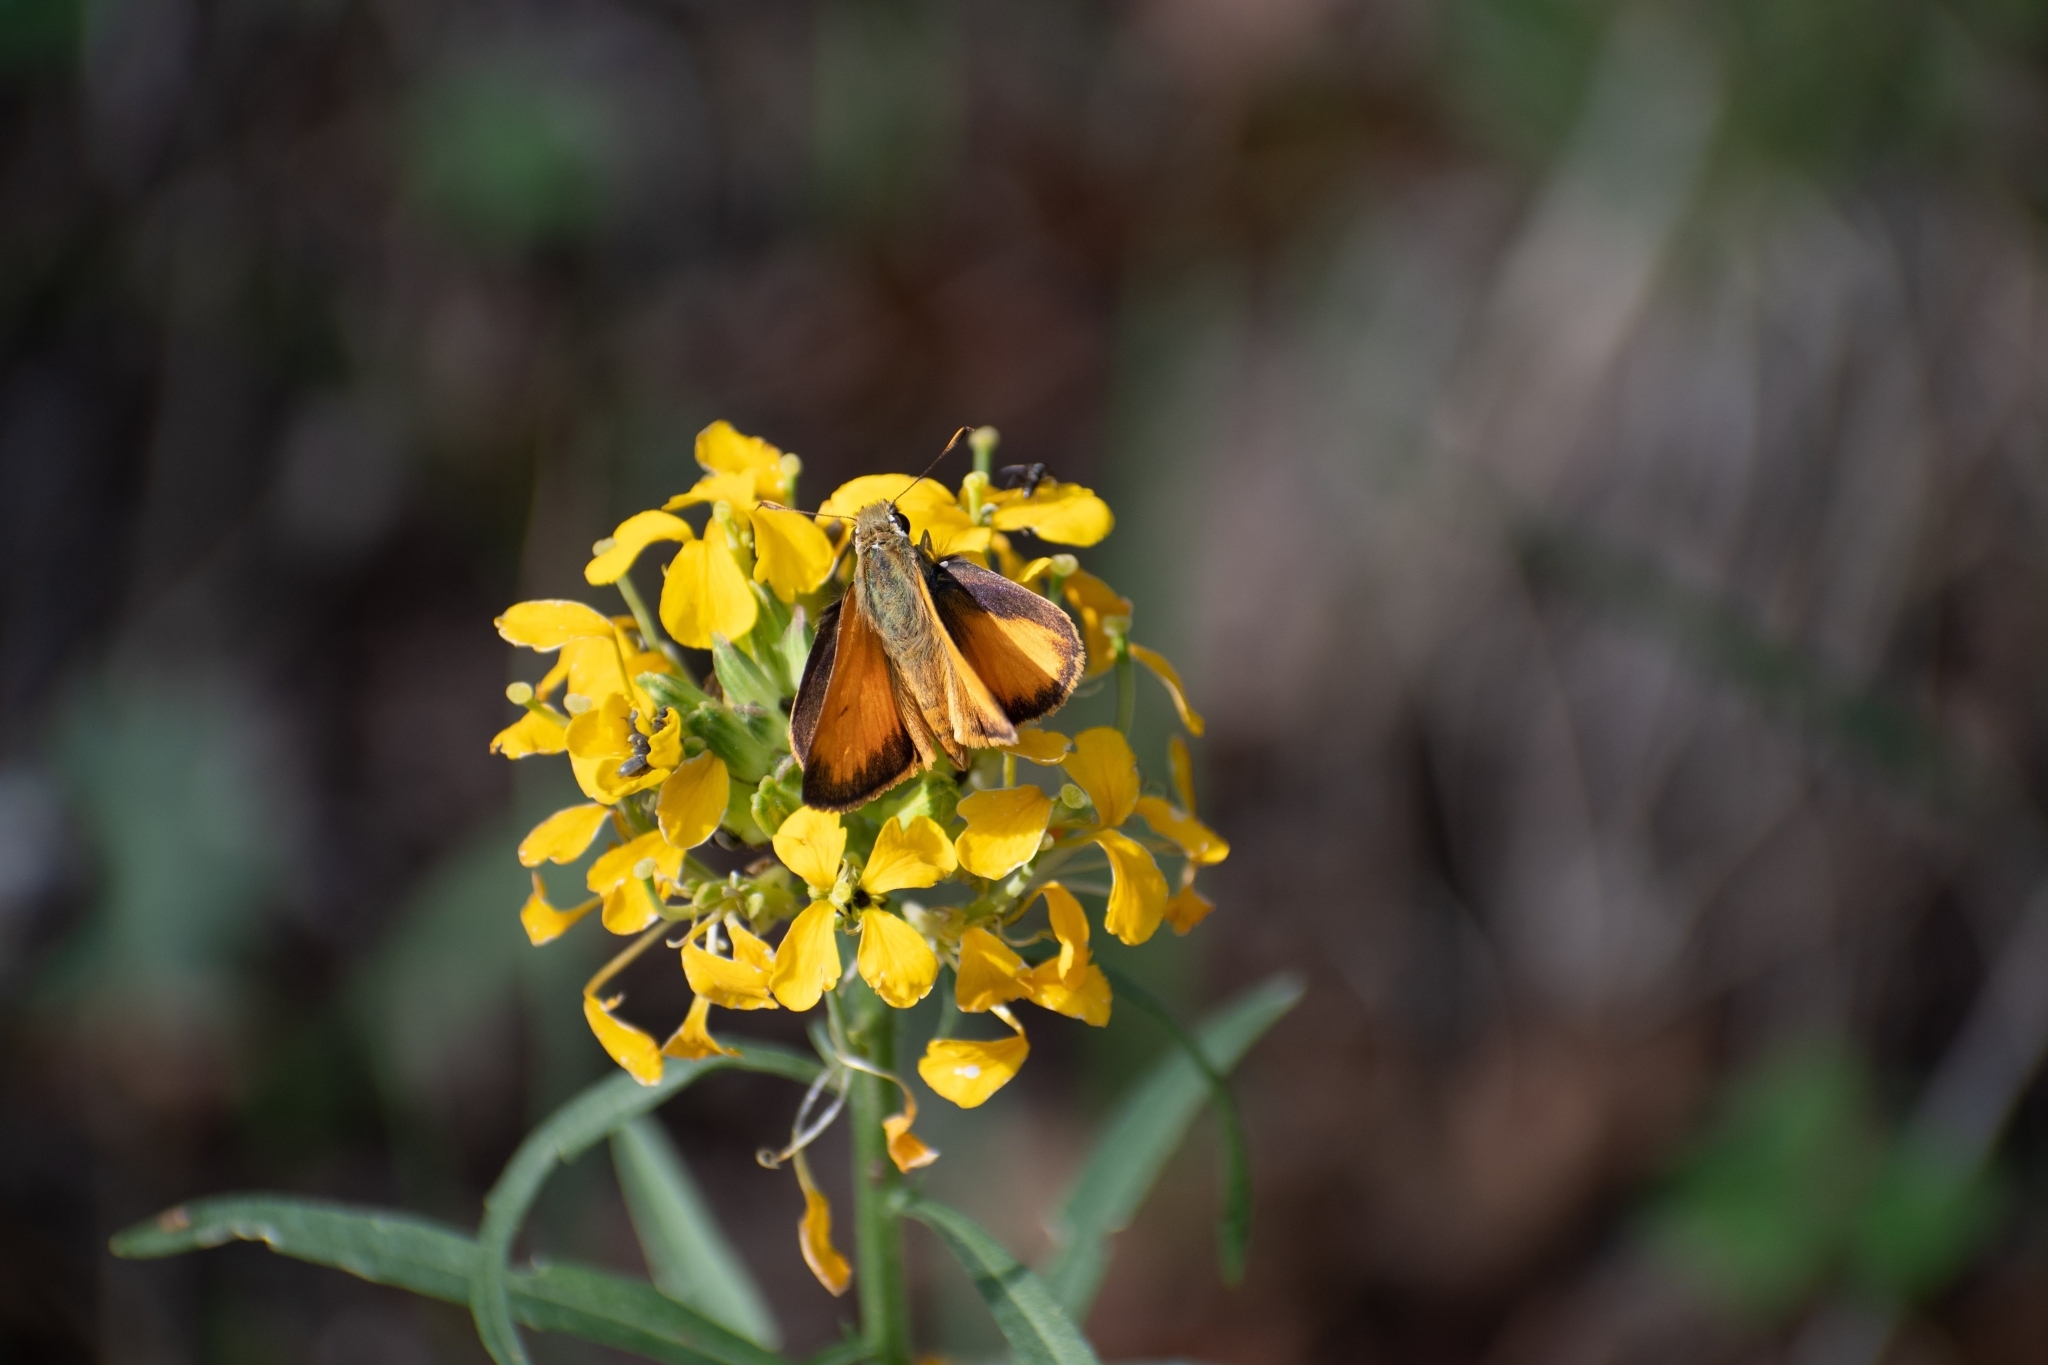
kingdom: Animalia
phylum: Arthropoda
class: Insecta
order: Lepidoptera
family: Hesperiidae
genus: Lon
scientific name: Lon taxiles
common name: Taxiles skipper
